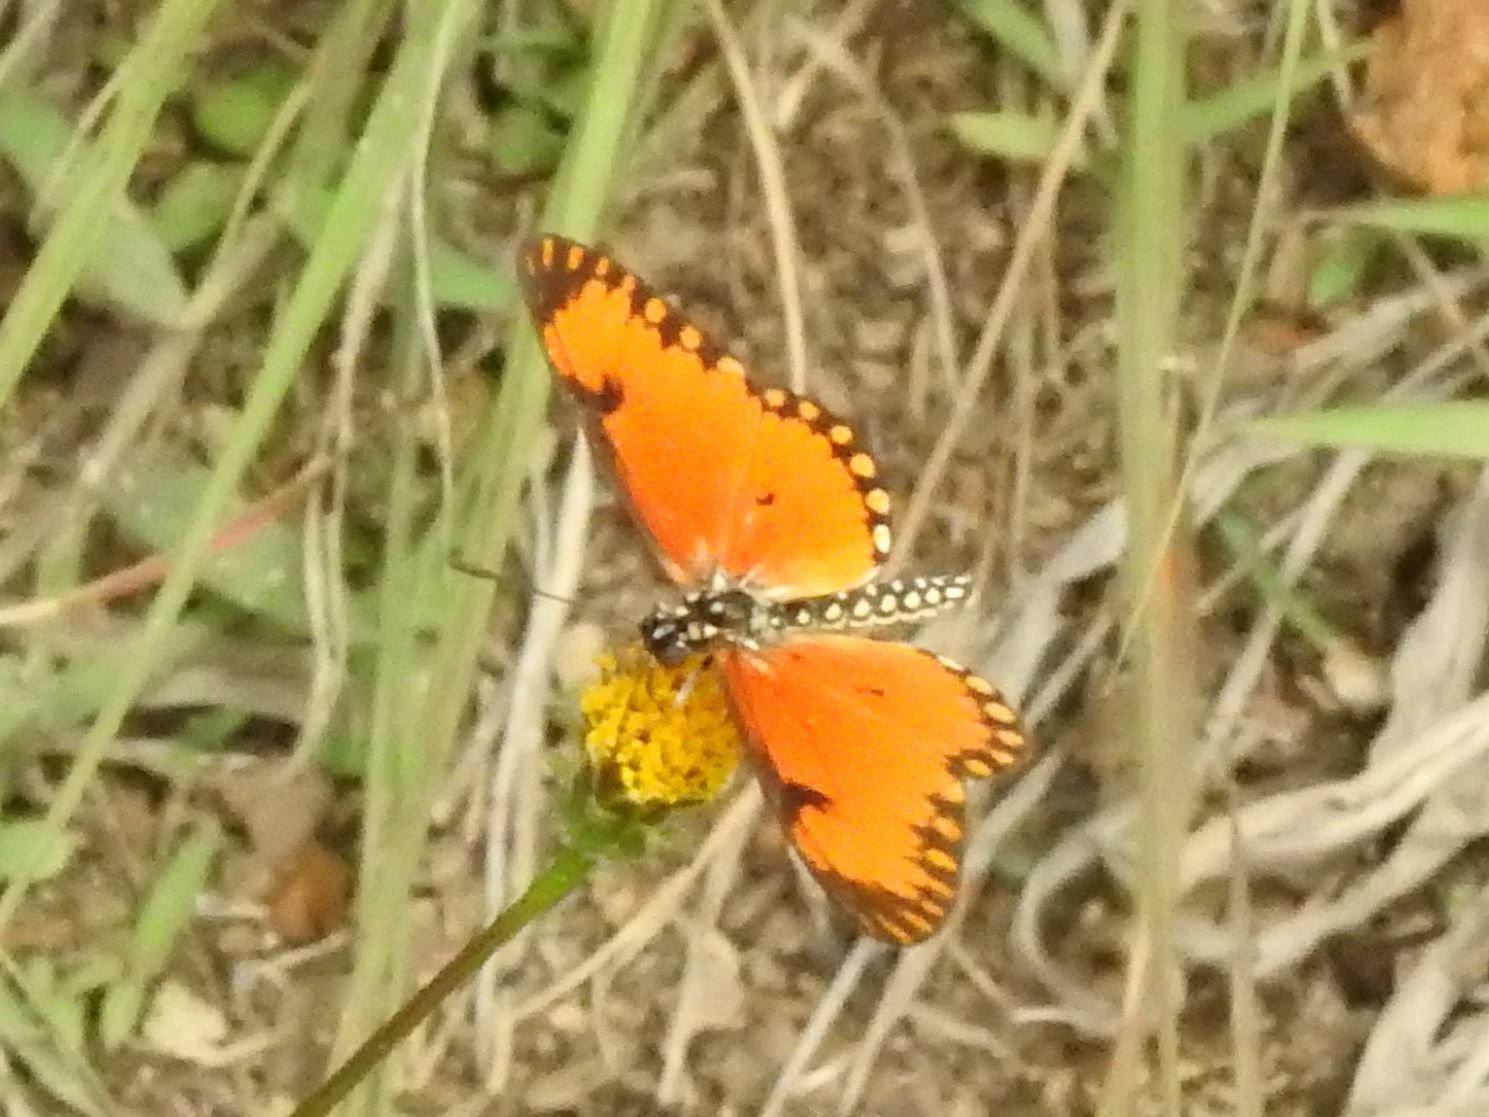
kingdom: Animalia
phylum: Arthropoda
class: Insecta
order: Lepidoptera
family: Nymphalidae
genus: Acraea
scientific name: Acraea Telchinia serena
